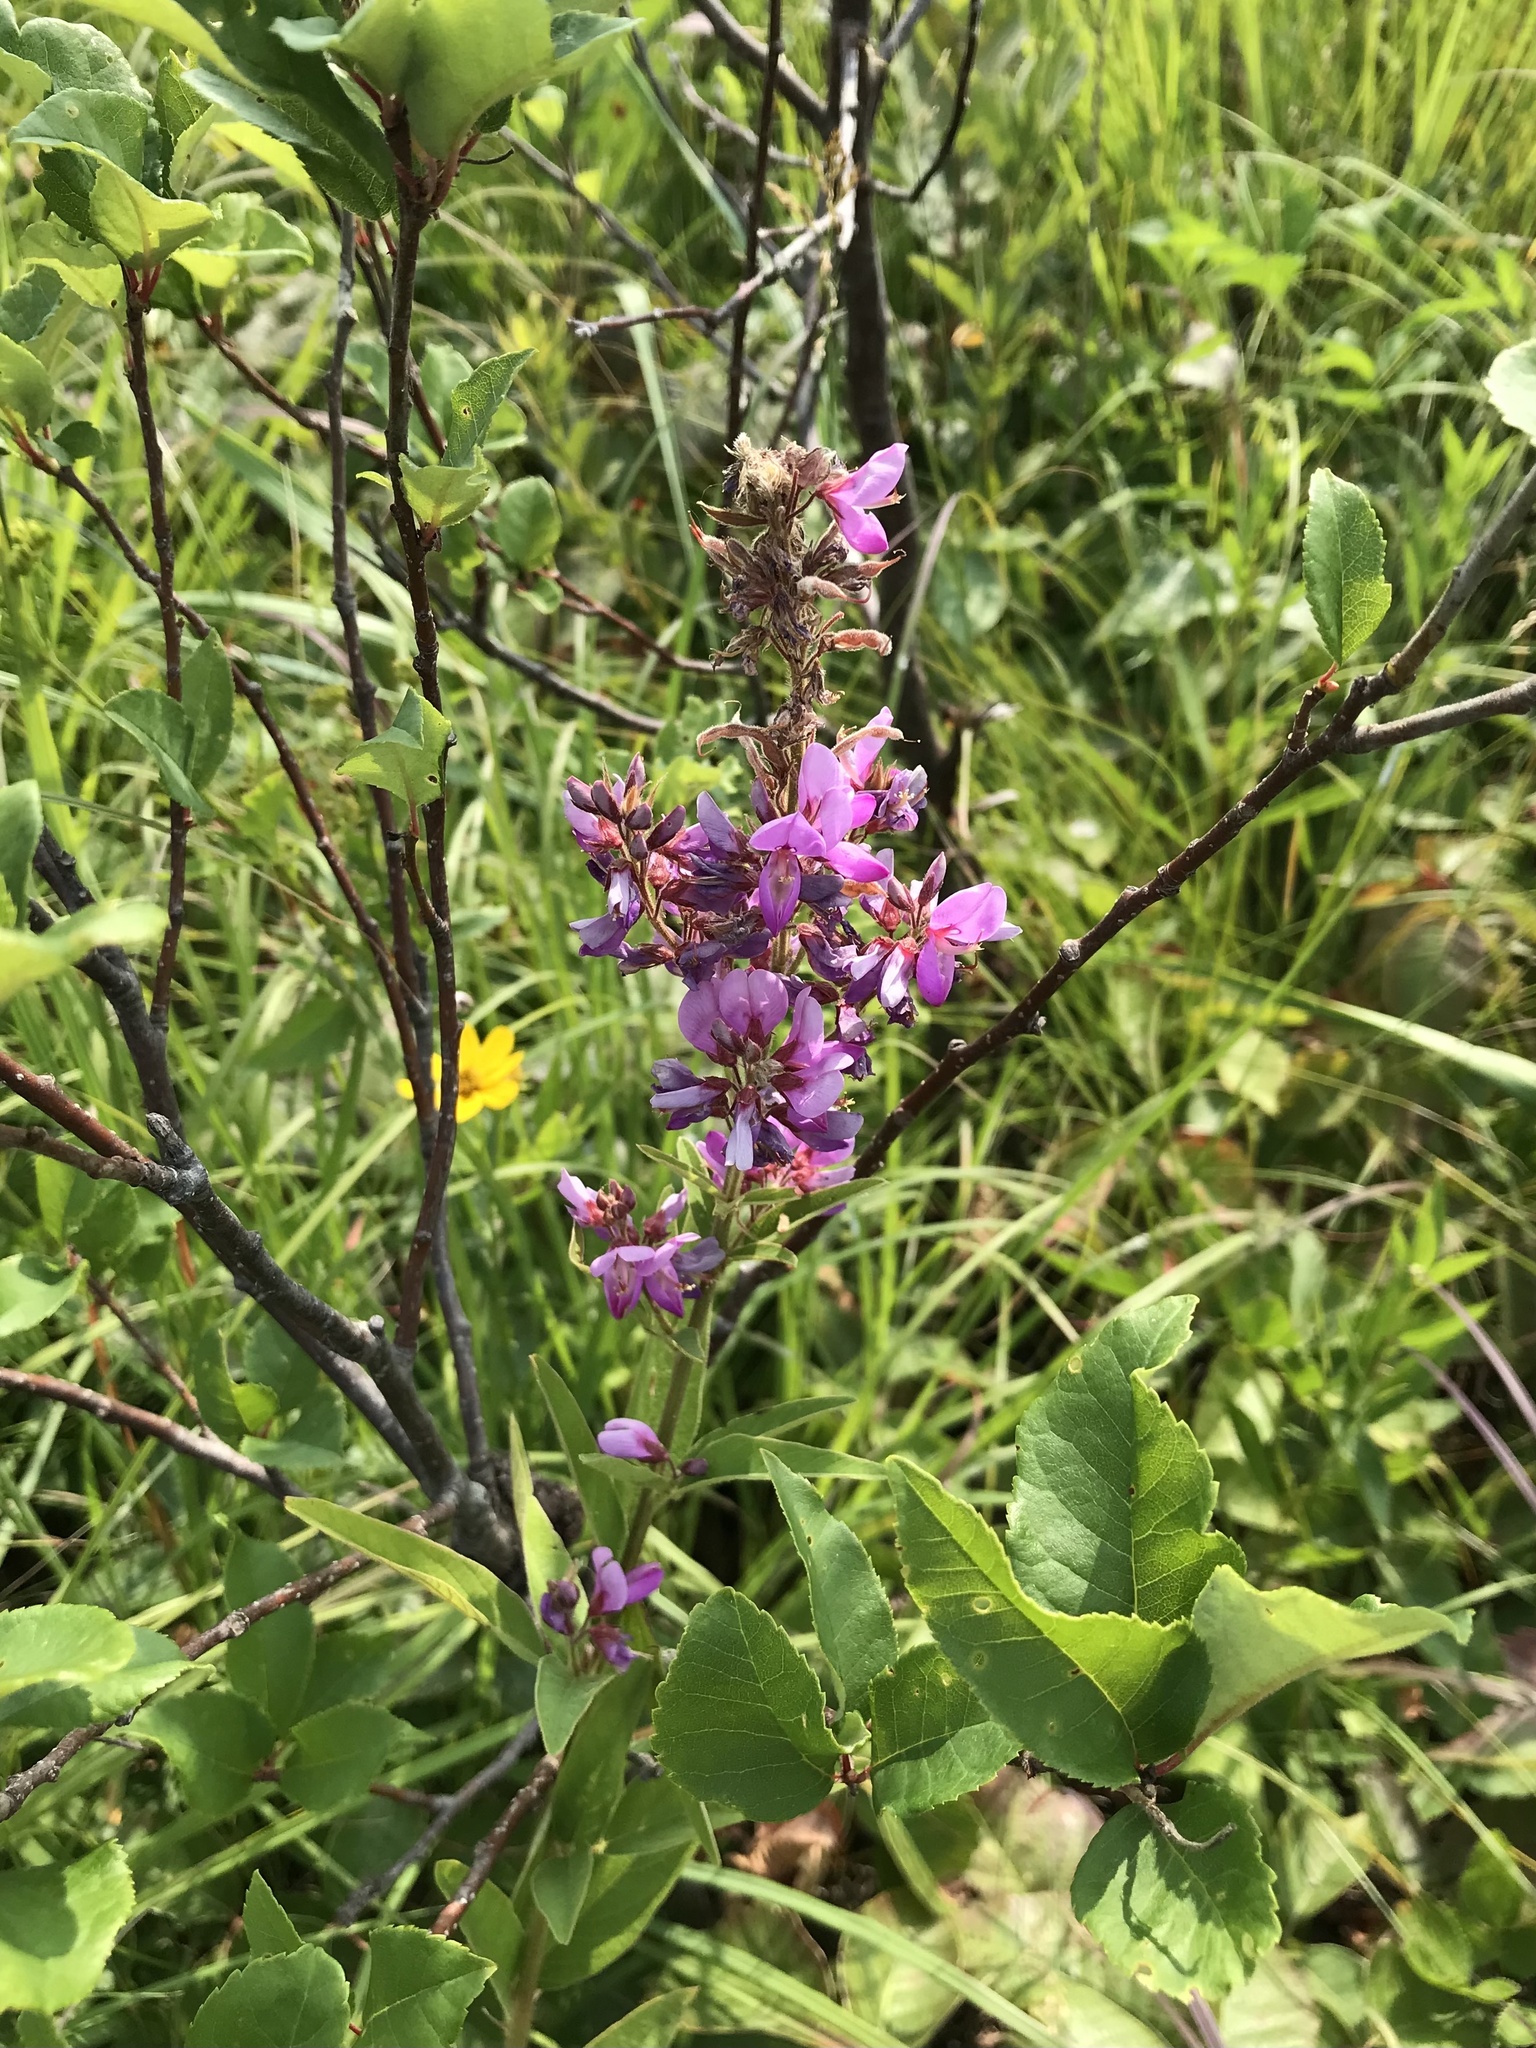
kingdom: Plantae
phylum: Tracheophyta
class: Magnoliopsida
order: Fabales
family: Fabaceae
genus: Desmodium
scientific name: Desmodium canadense
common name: Canada tick-trefoil
